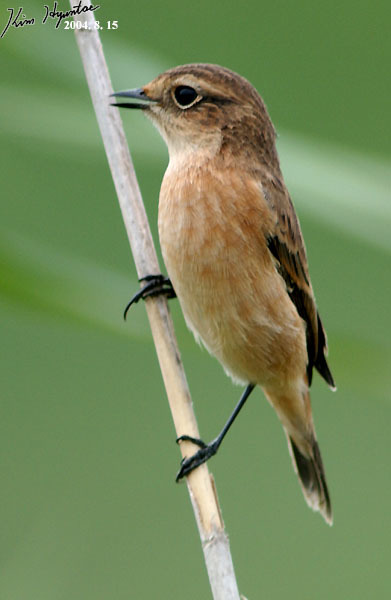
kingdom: Animalia
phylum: Chordata
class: Aves
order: Passeriformes
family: Muscicapidae
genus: Saxicola
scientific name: Saxicola stejnegeri
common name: Stejneger's stonechat
